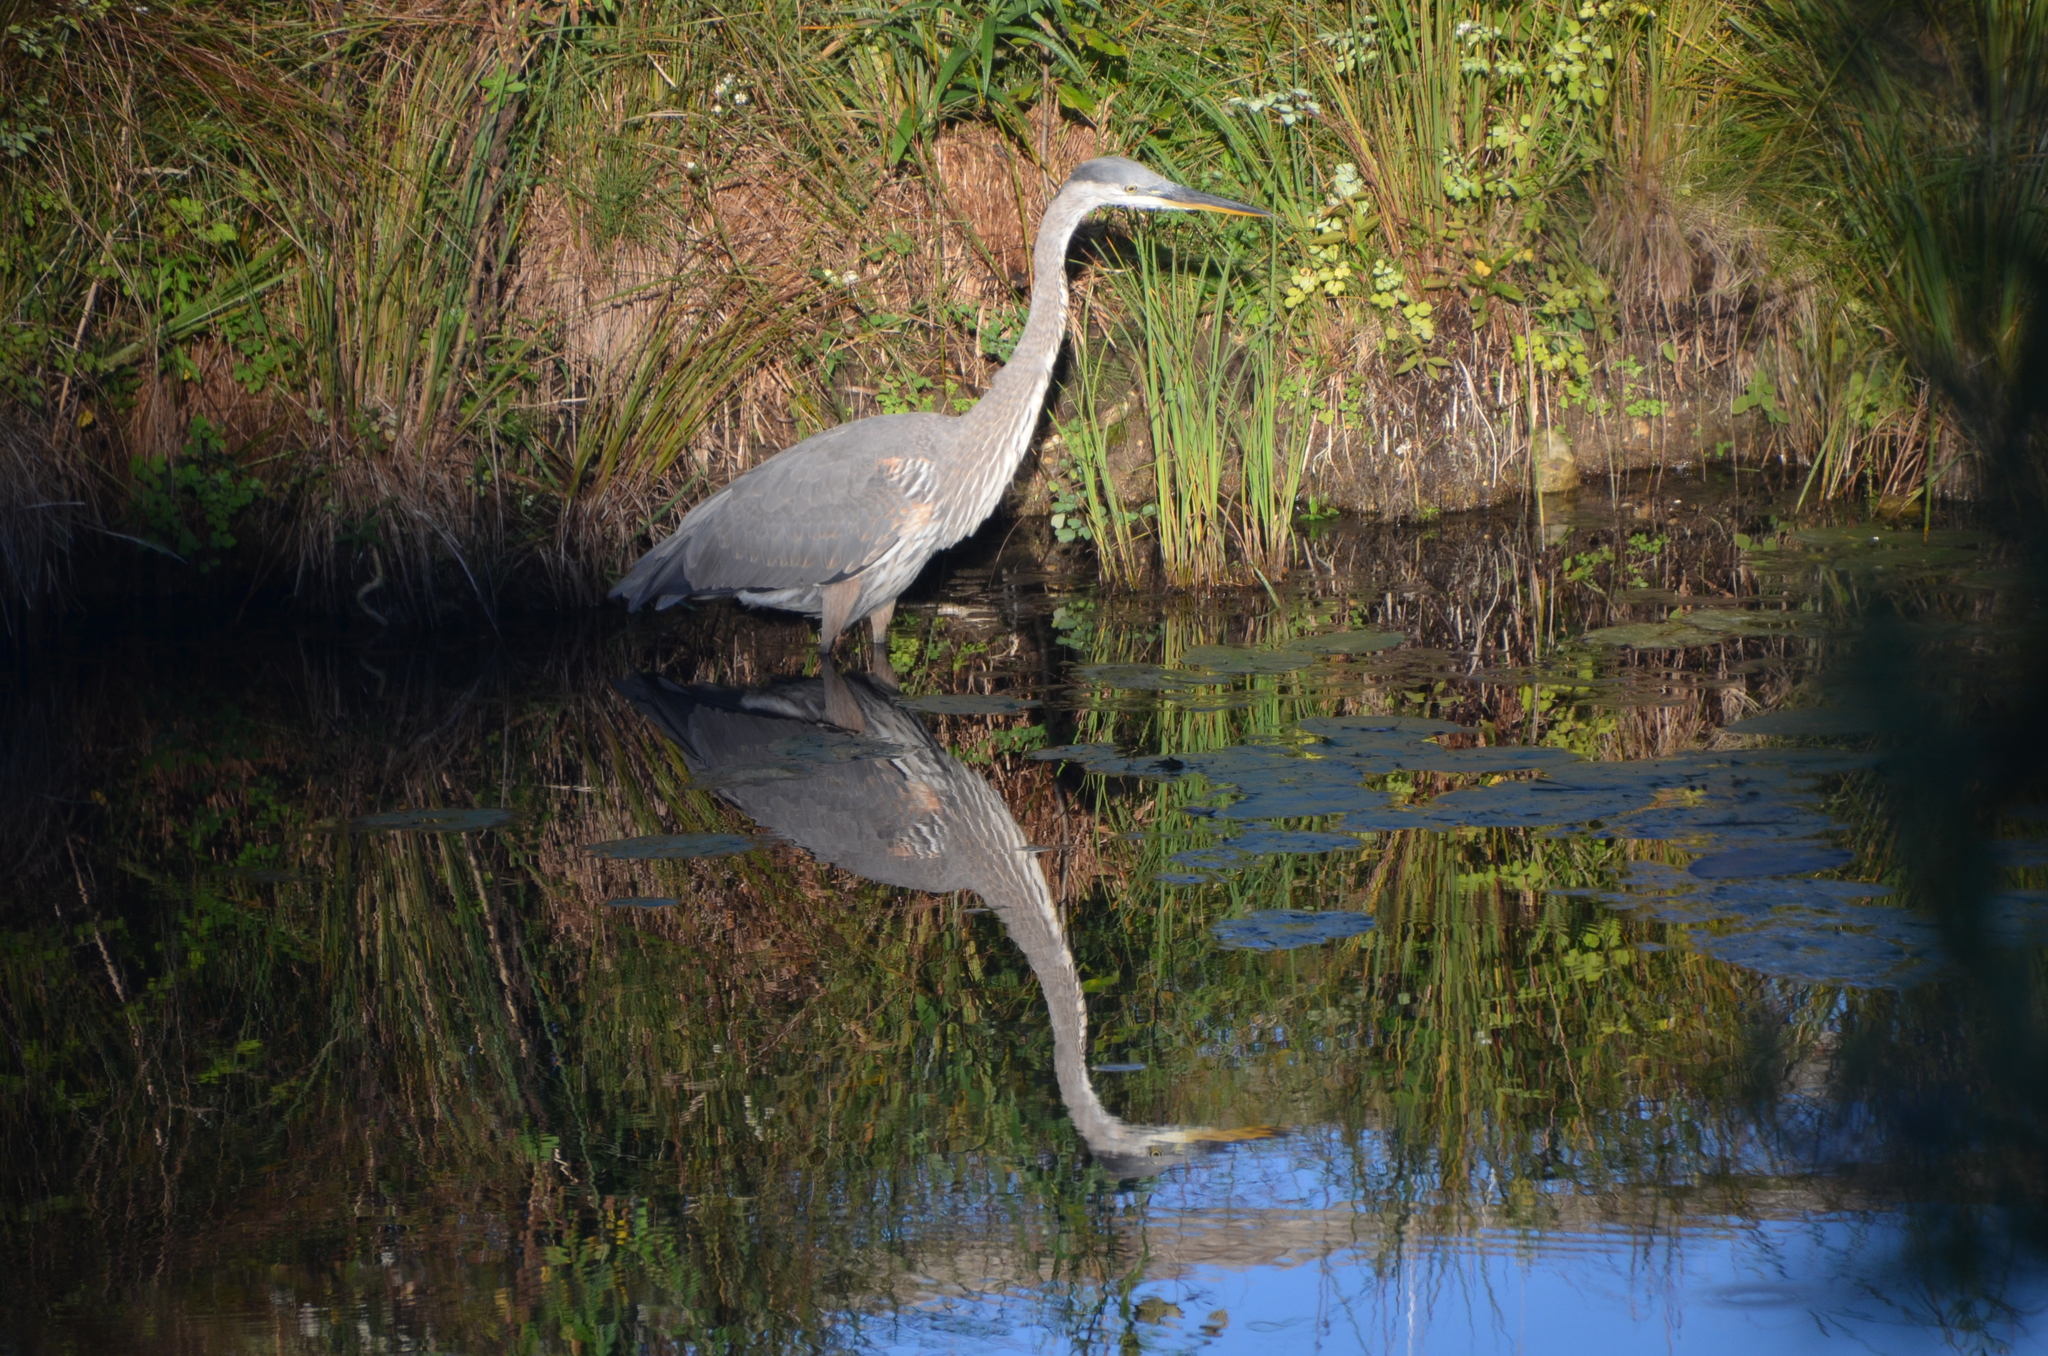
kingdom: Animalia
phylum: Chordata
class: Aves
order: Pelecaniformes
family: Ardeidae
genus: Ardea
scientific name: Ardea herodias
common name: Great blue heron
